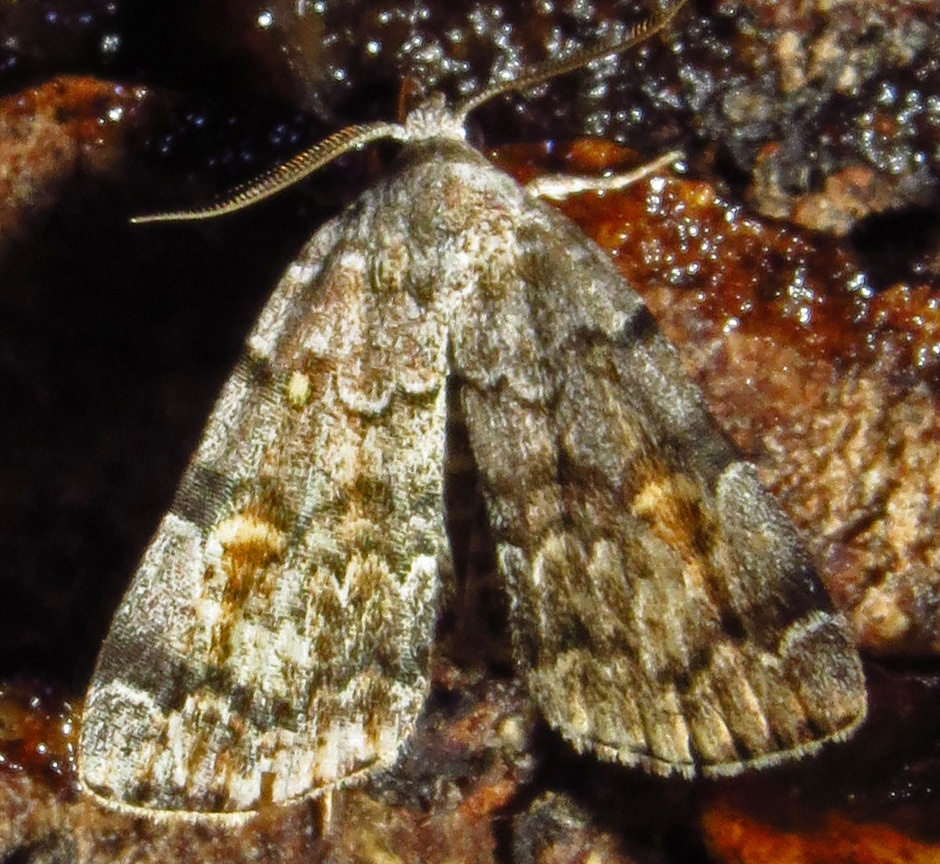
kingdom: Animalia
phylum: Arthropoda
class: Insecta
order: Lepidoptera
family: Erebidae
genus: Idia
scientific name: Idia americalis
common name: American idia moth
